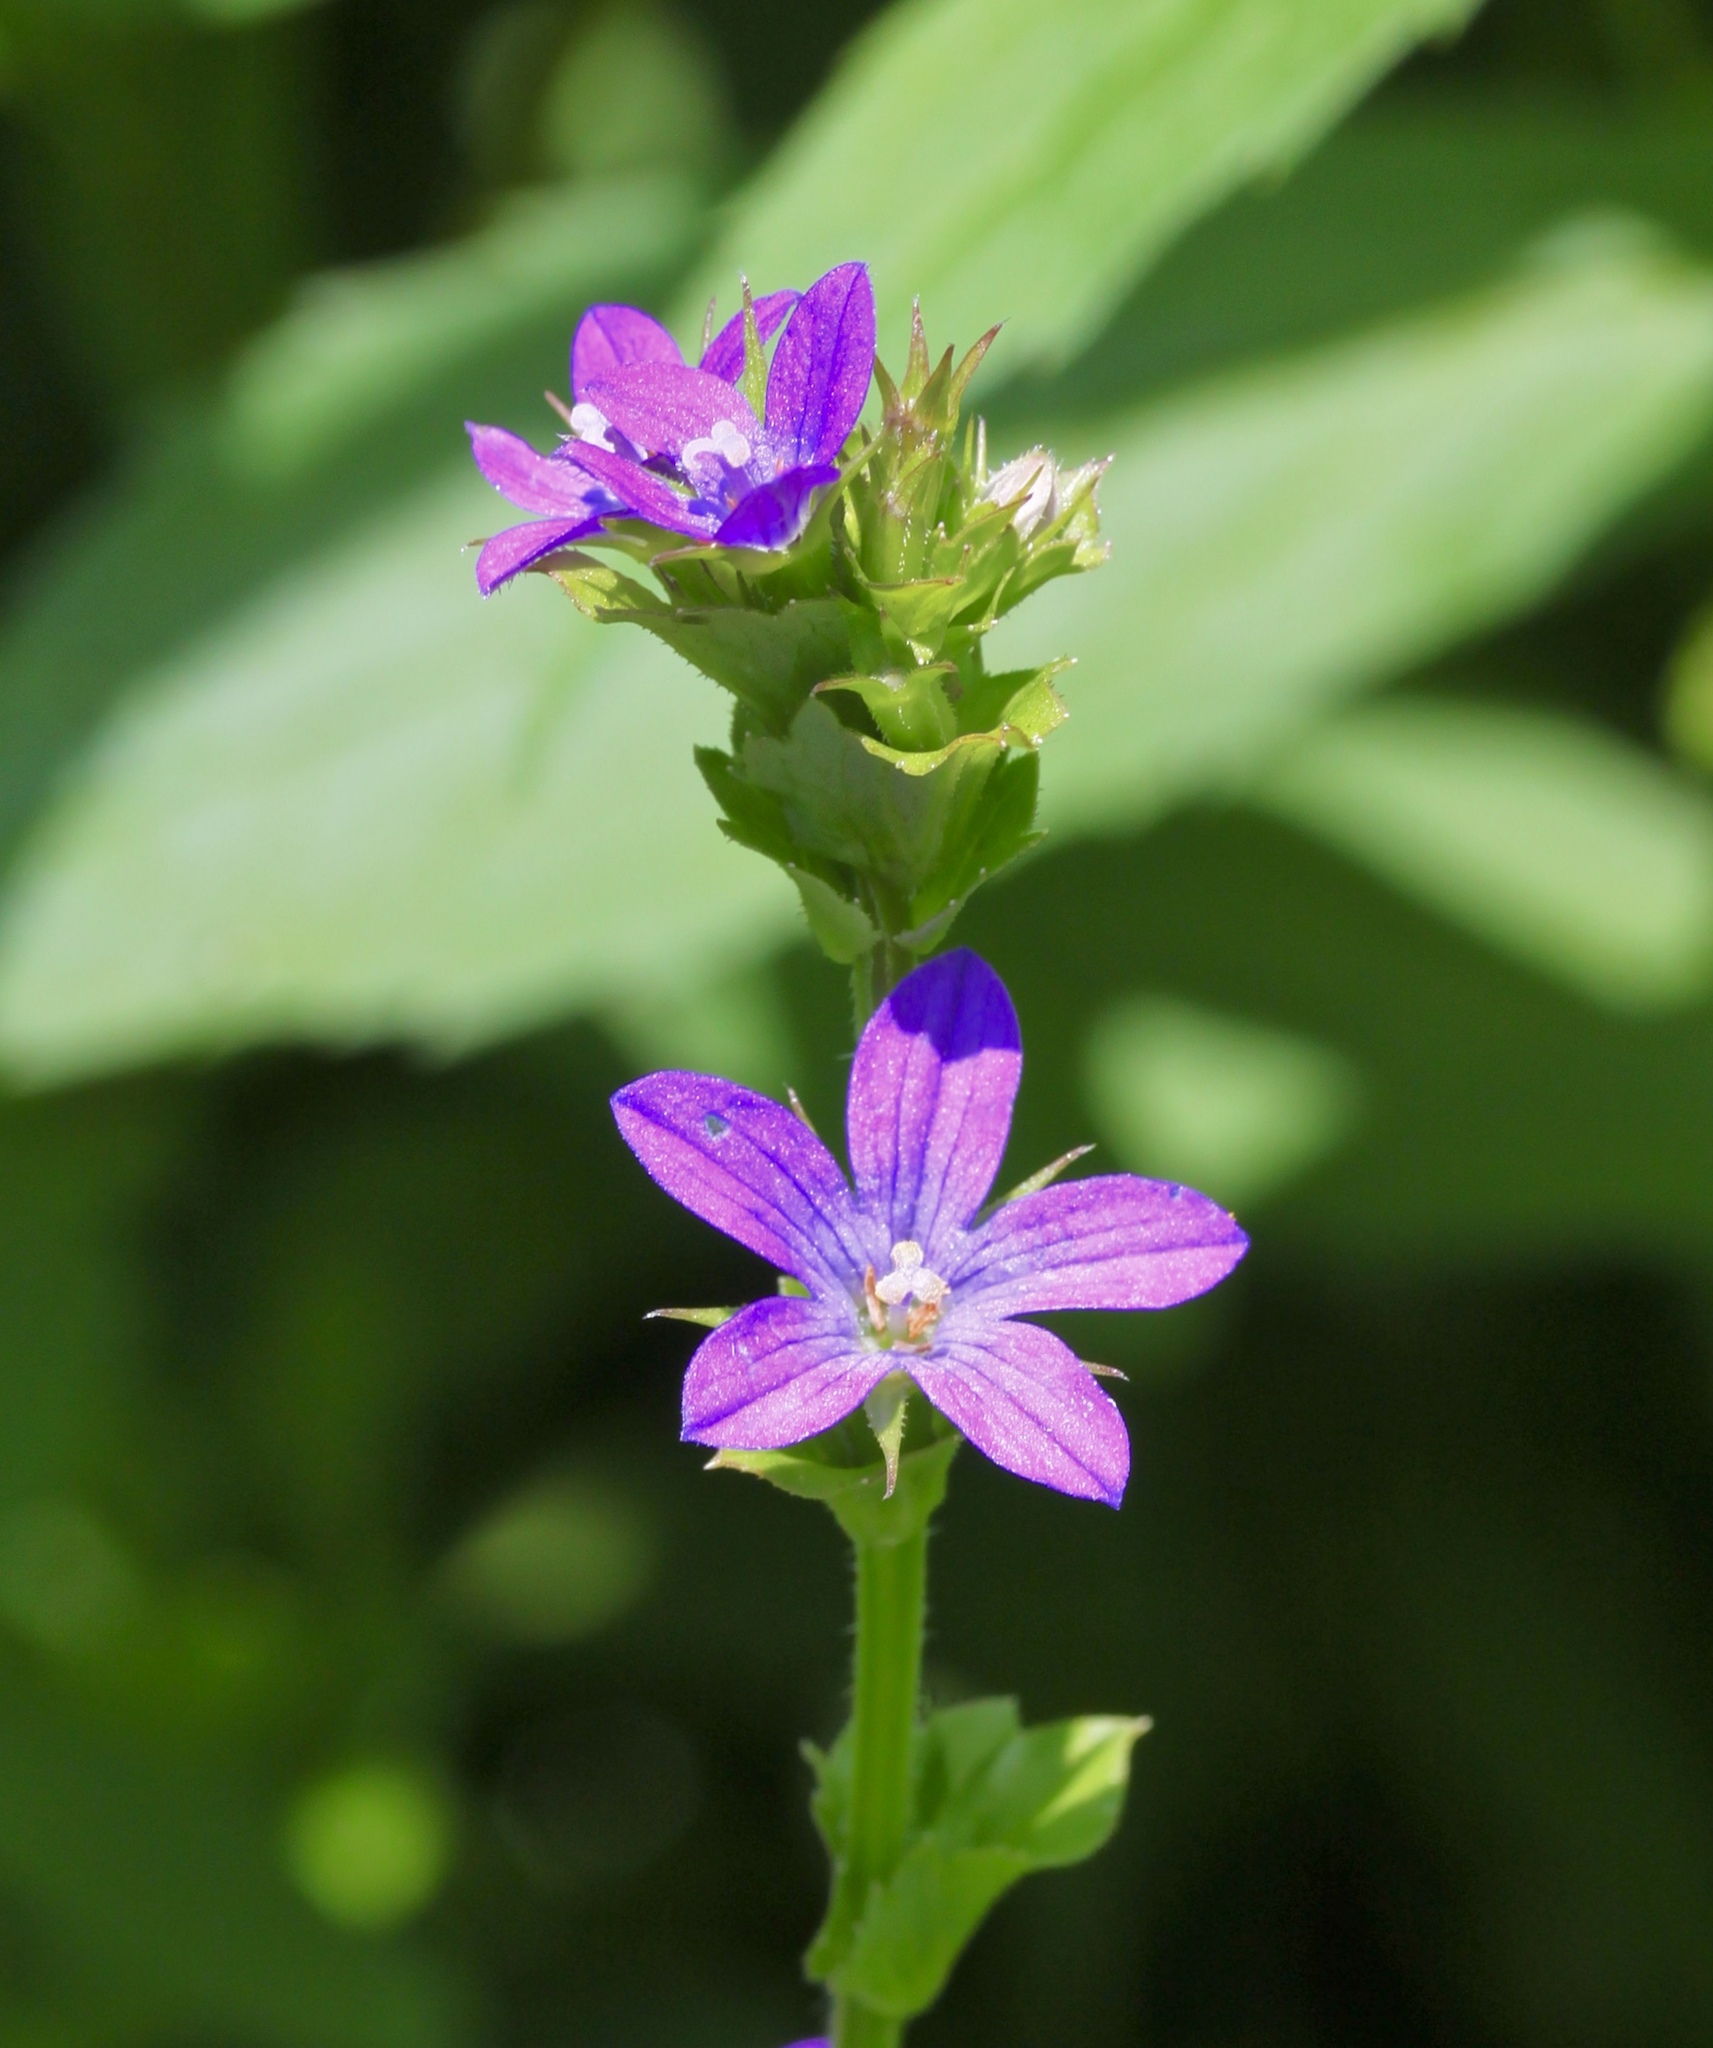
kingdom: Plantae
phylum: Tracheophyta
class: Magnoliopsida
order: Asterales
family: Campanulaceae
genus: Triodanis
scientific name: Triodanis perfoliata
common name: Clasping venus' looking-glass
